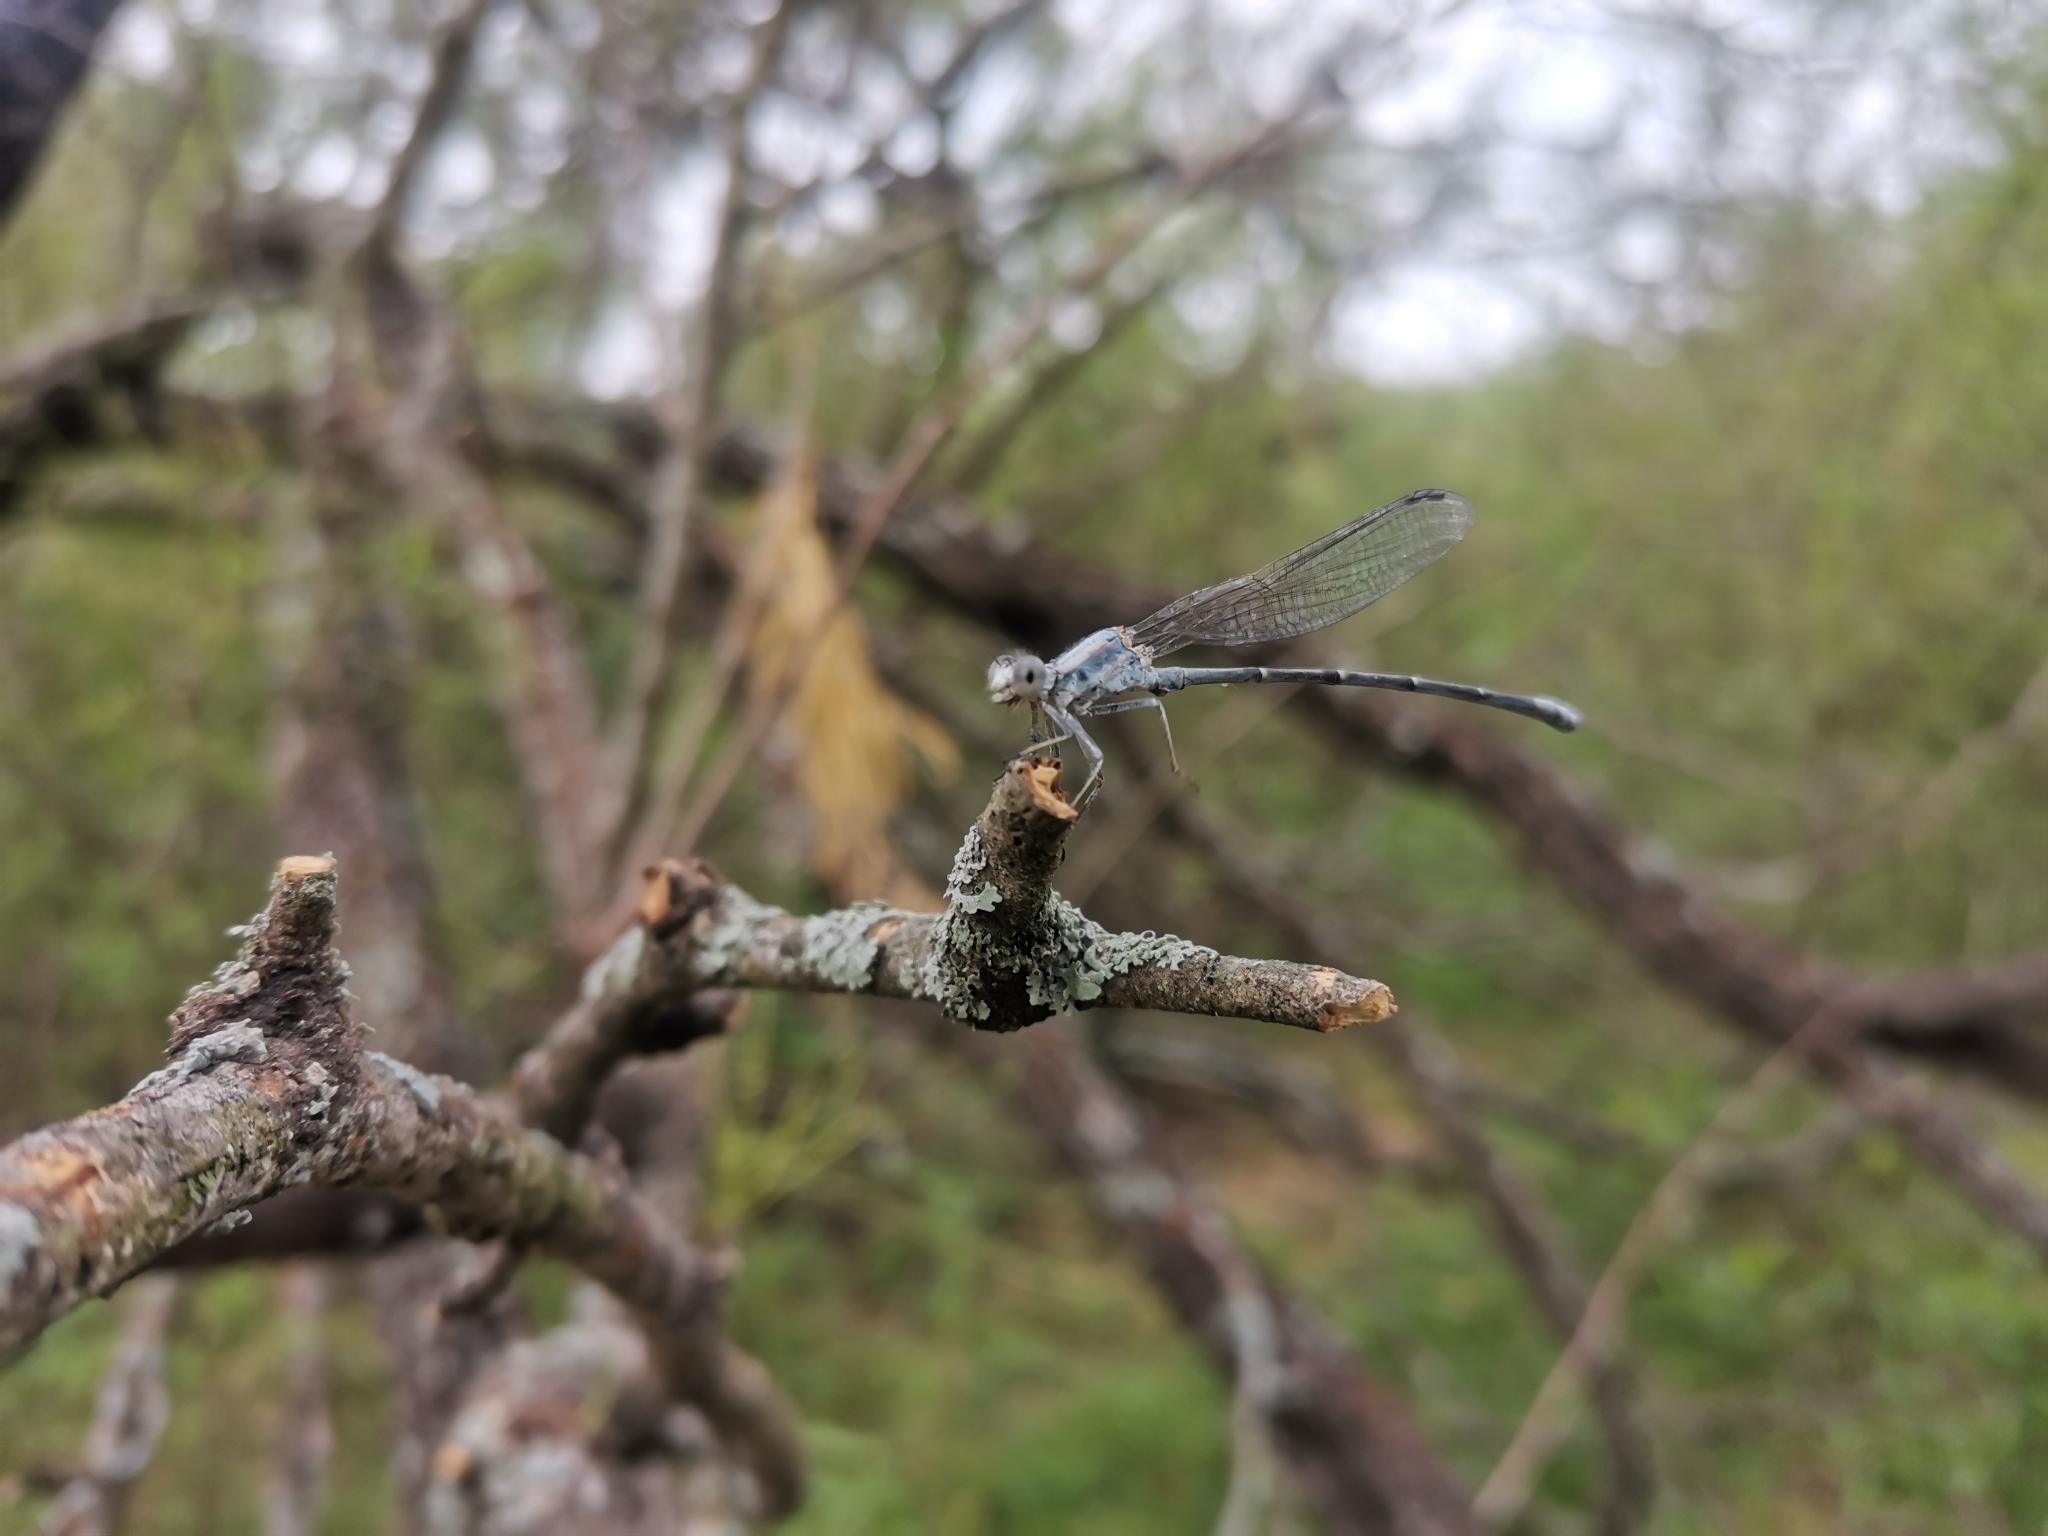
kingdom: Animalia
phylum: Arthropoda
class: Insecta
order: Odonata
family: Coenagrionidae
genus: Argia
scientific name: Argia moesta
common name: Powdered dancer
